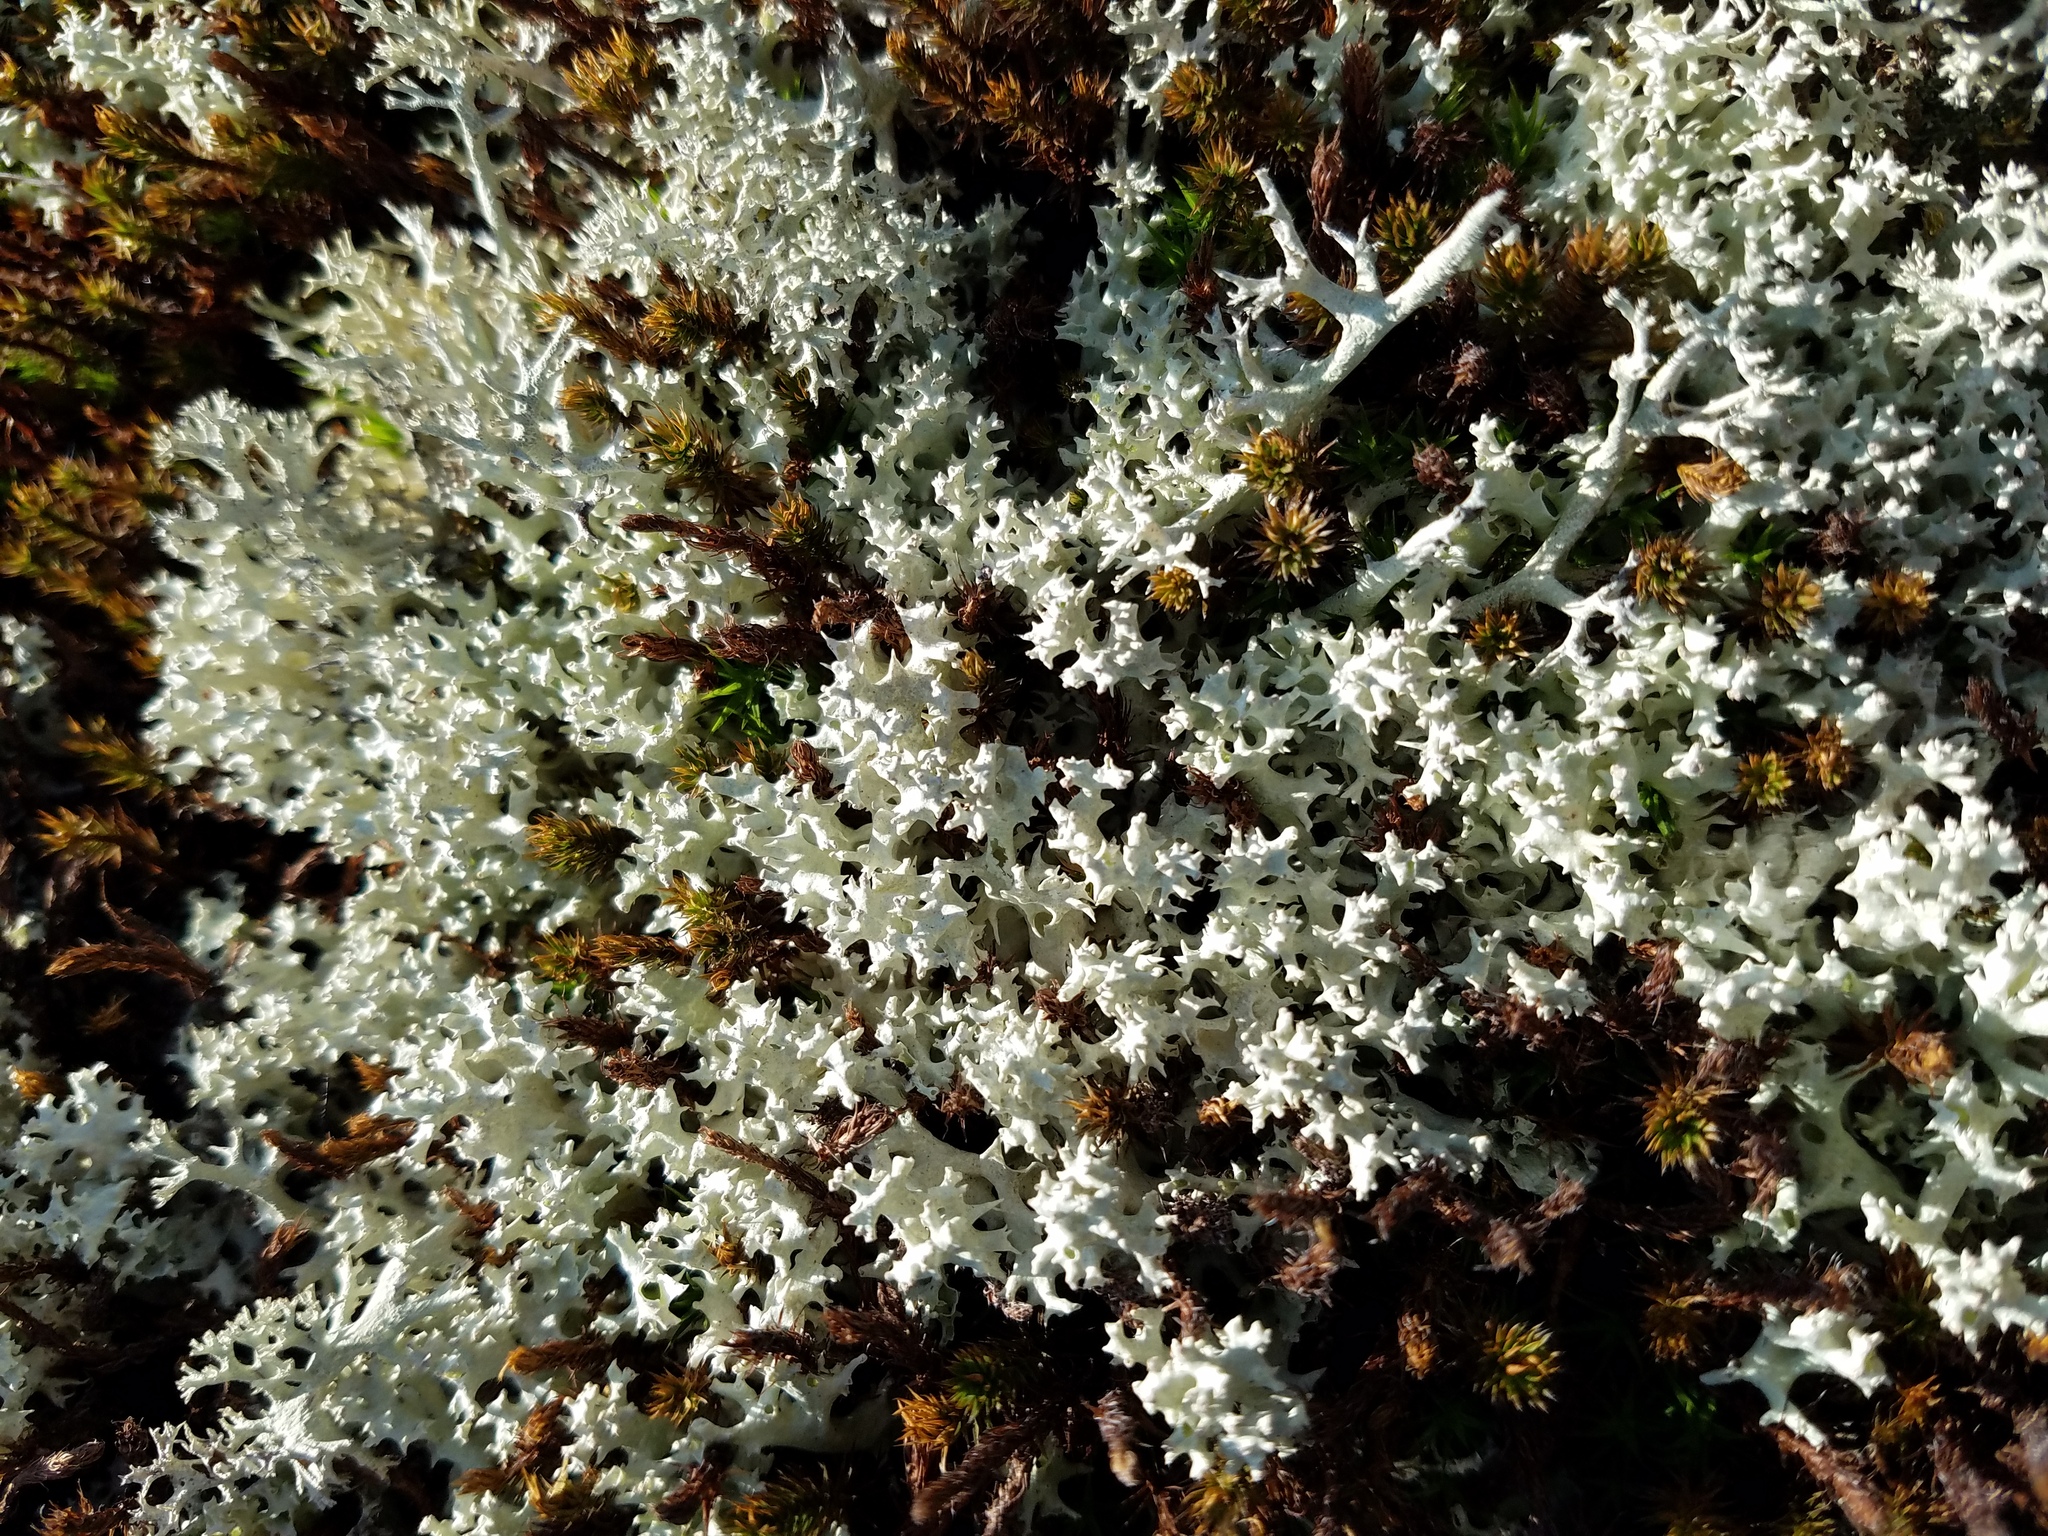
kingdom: Fungi
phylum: Ascomycota
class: Lecanoromycetes
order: Lecanorales
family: Cladoniaceae
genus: Cladonia
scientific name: Cladonia caroliniana
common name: Granite thorn
